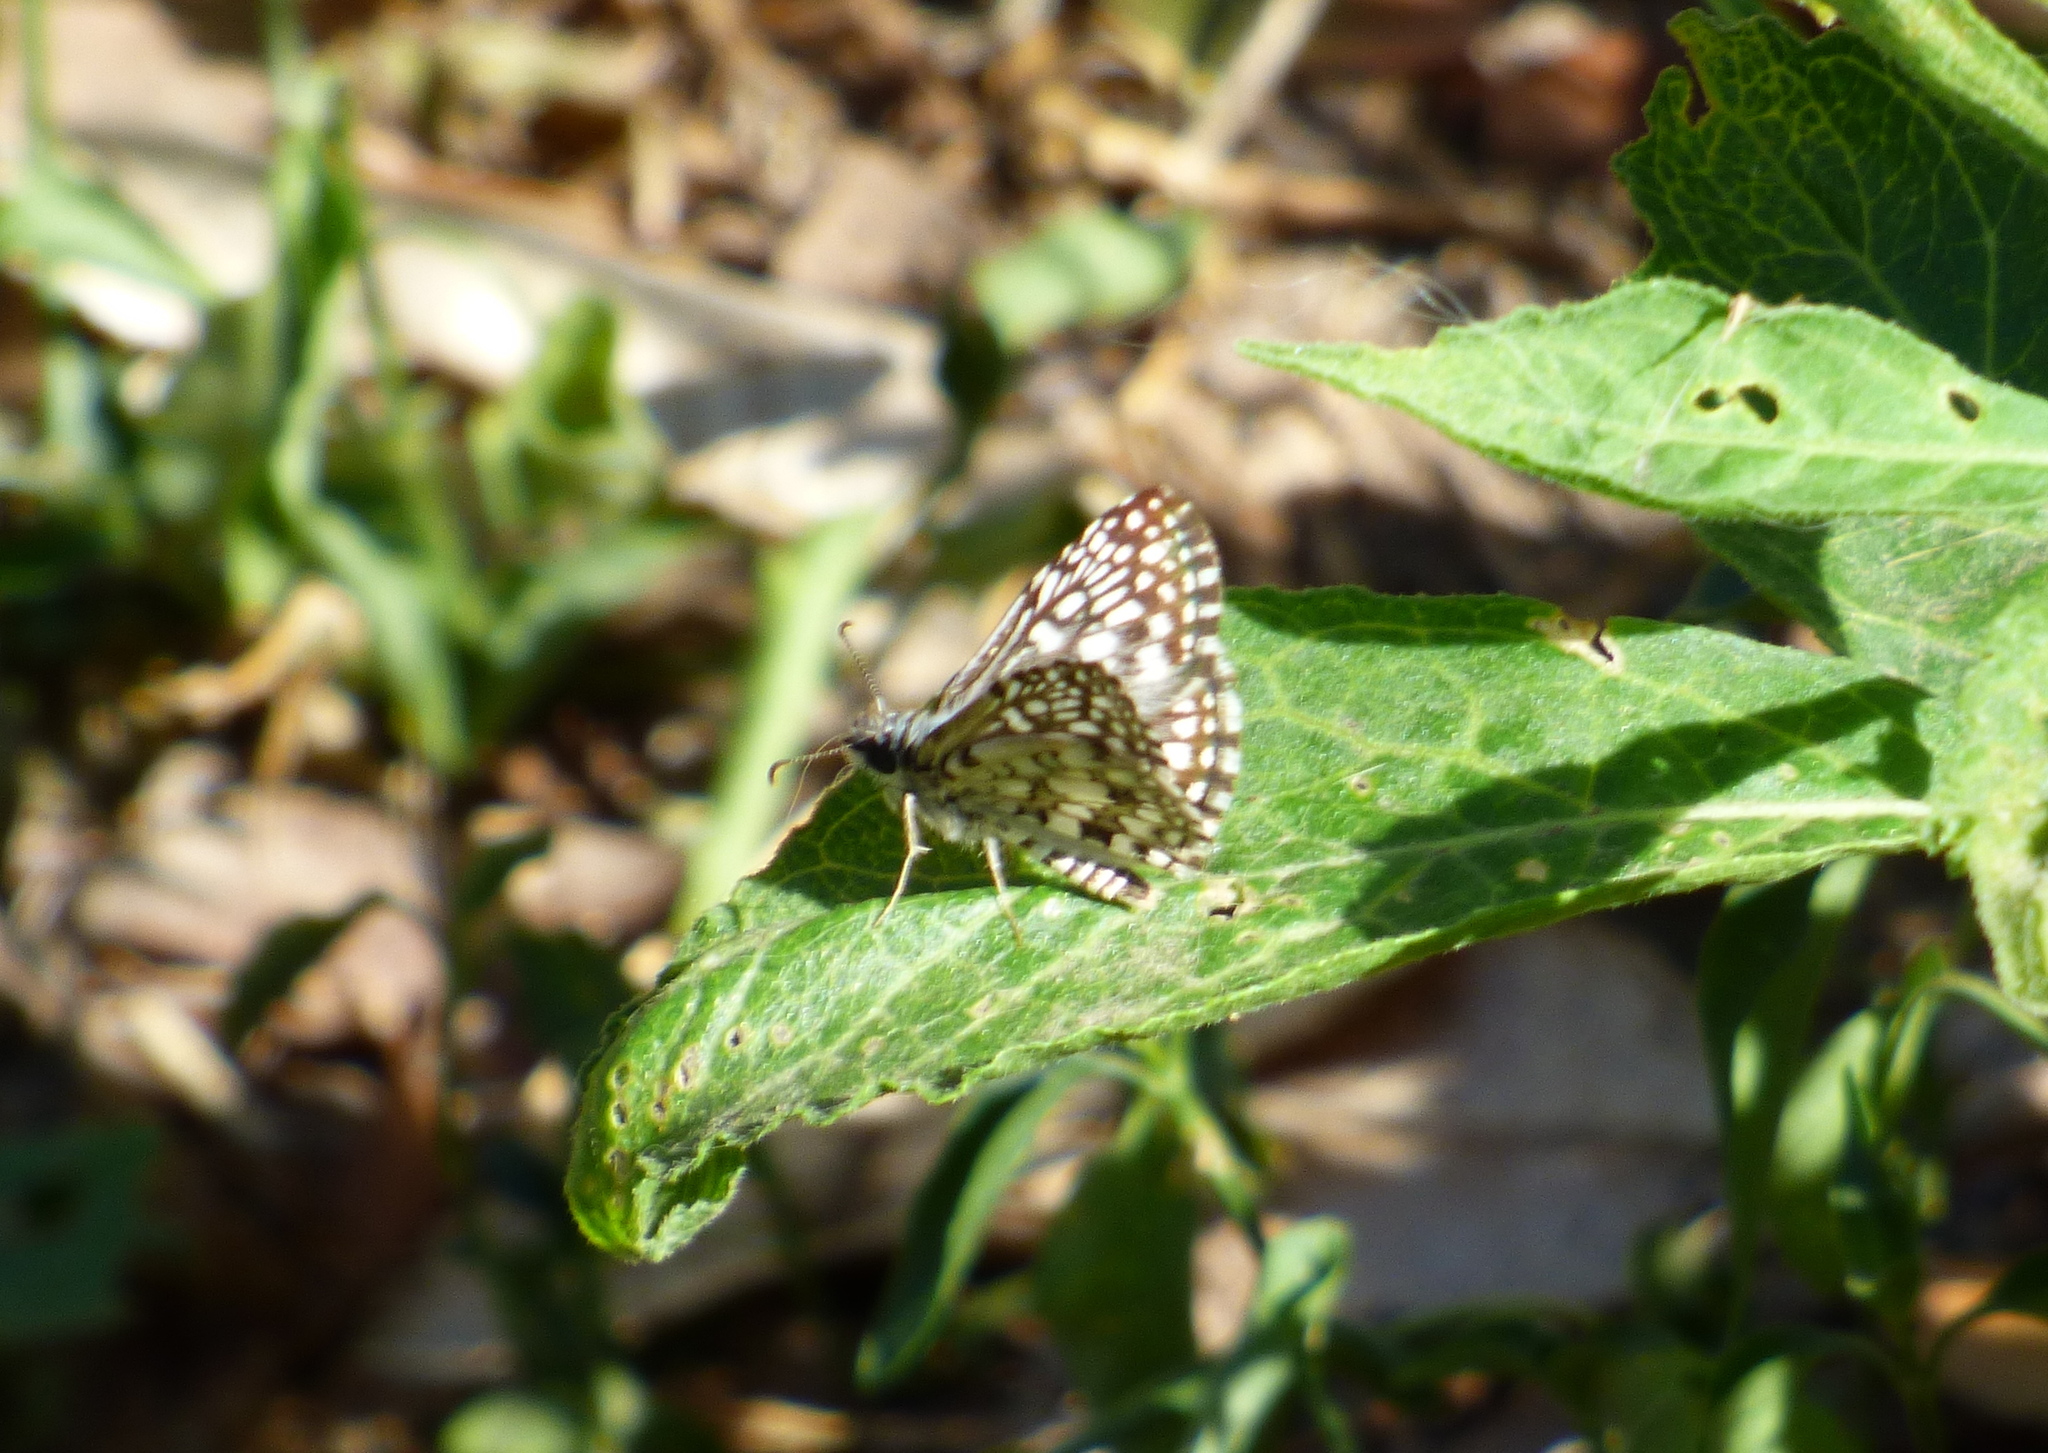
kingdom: Animalia
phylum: Arthropoda
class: Insecta
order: Lepidoptera
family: Hesperiidae
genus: Pyrgus
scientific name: Pyrgus oileus
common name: Tropical checkered-skipper
